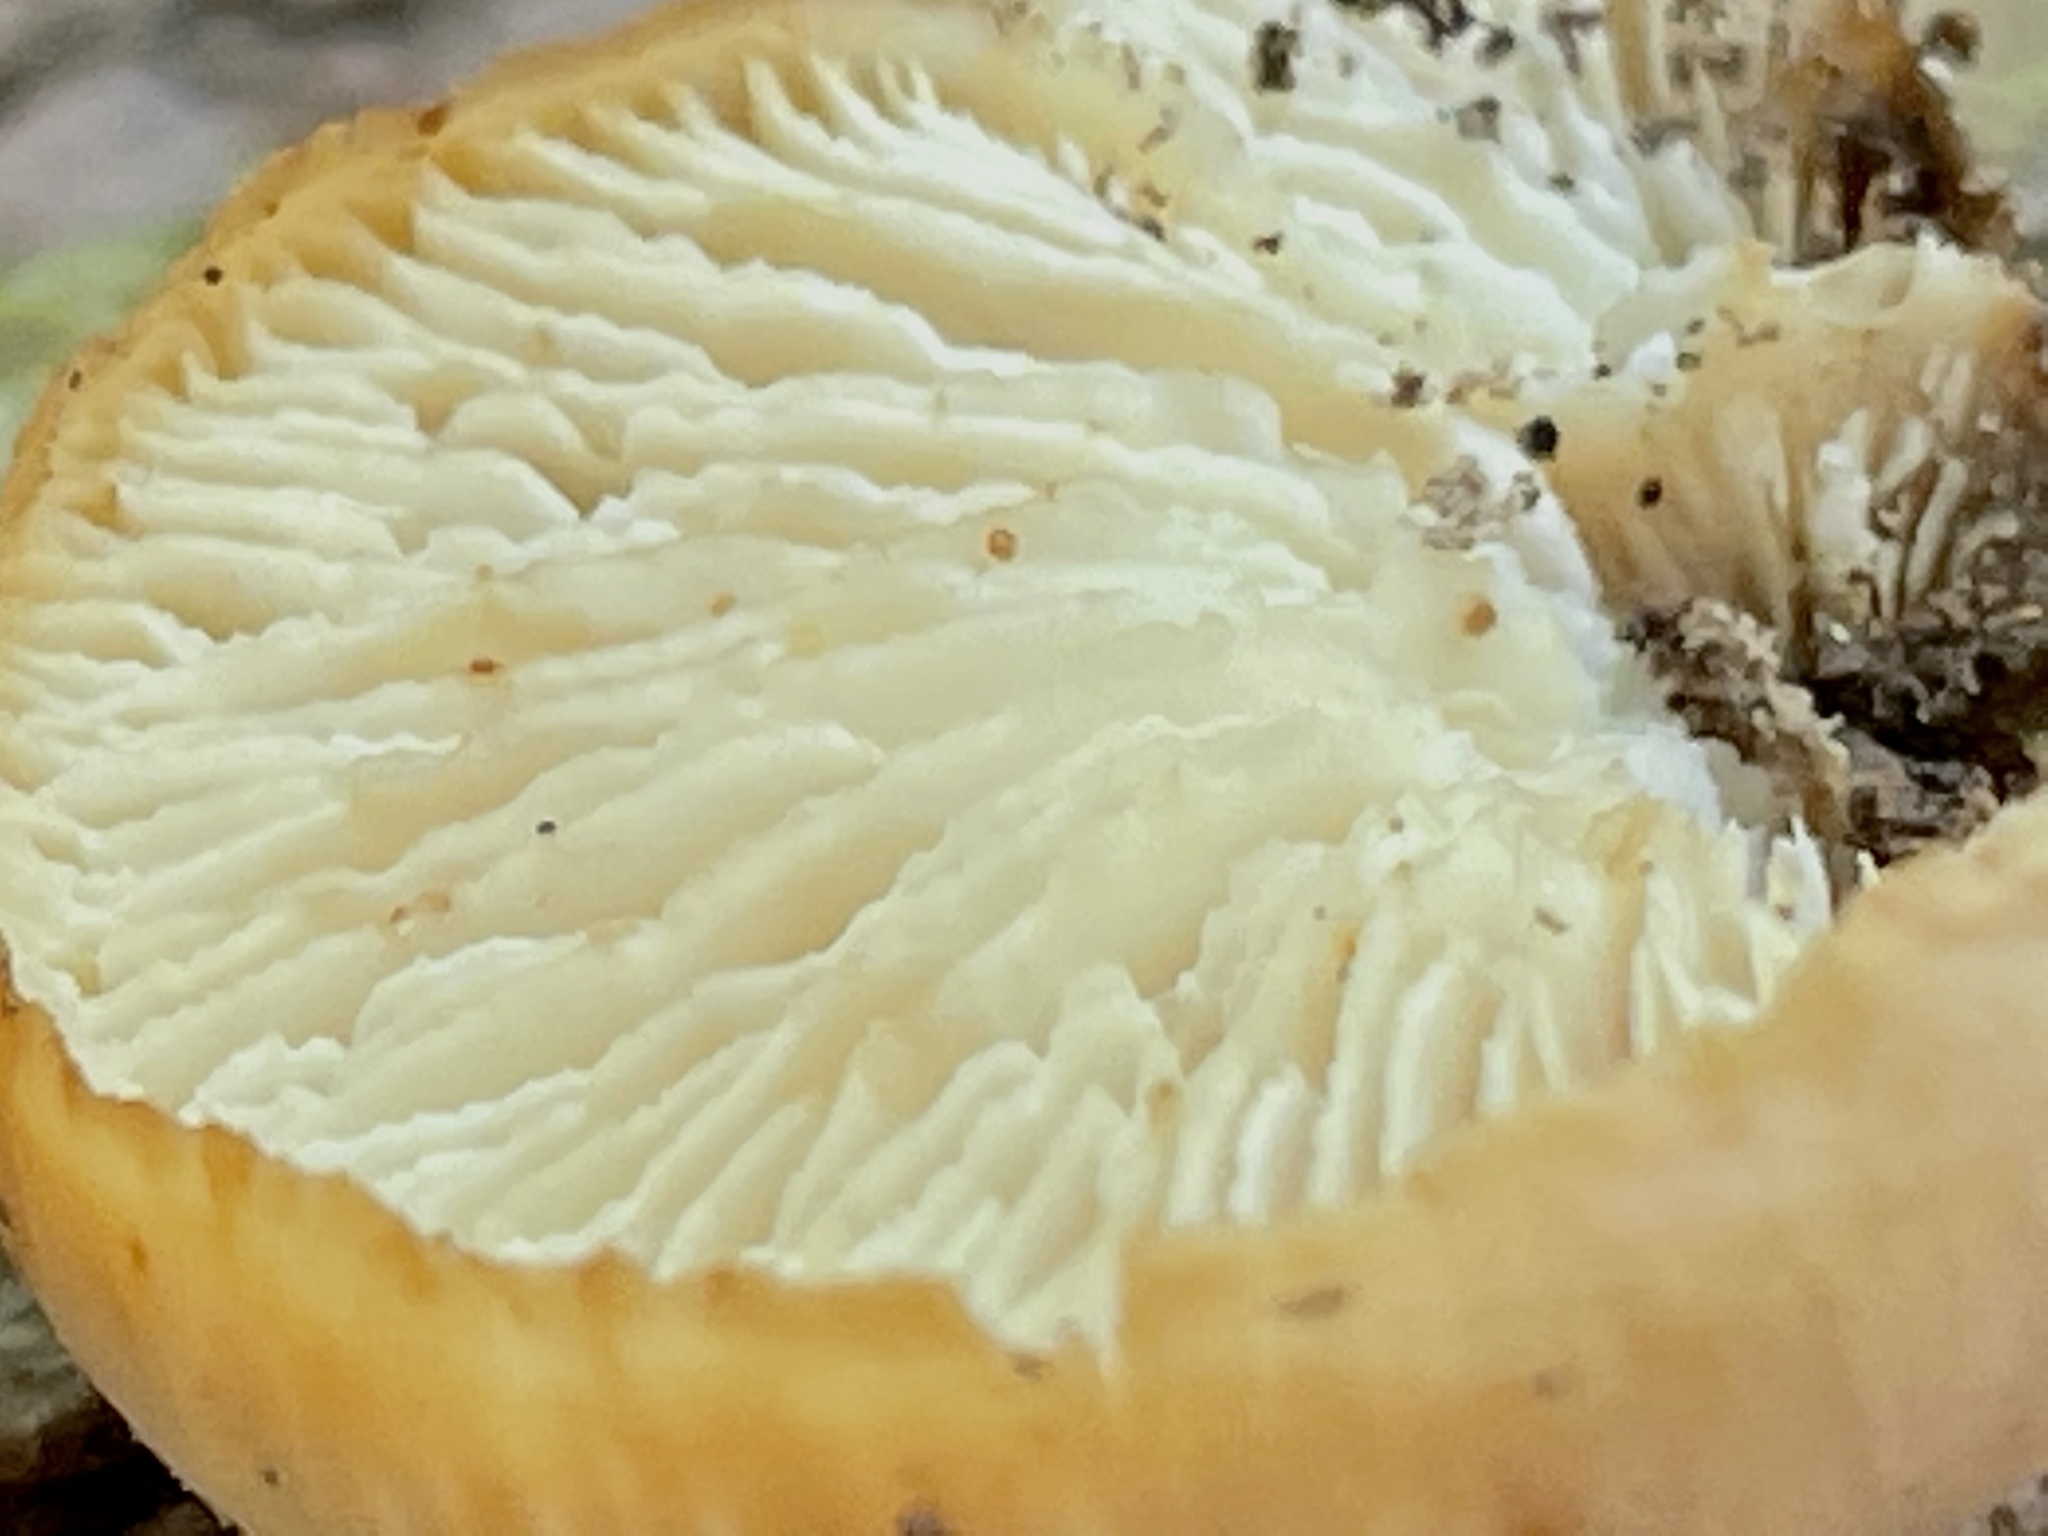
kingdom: Fungi
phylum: Basidiomycota
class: Agaricomycetes
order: Russulales
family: Auriscalpiaceae
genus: Lentinellus
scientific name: Lentinellus ursinus
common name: Bear lentinus
